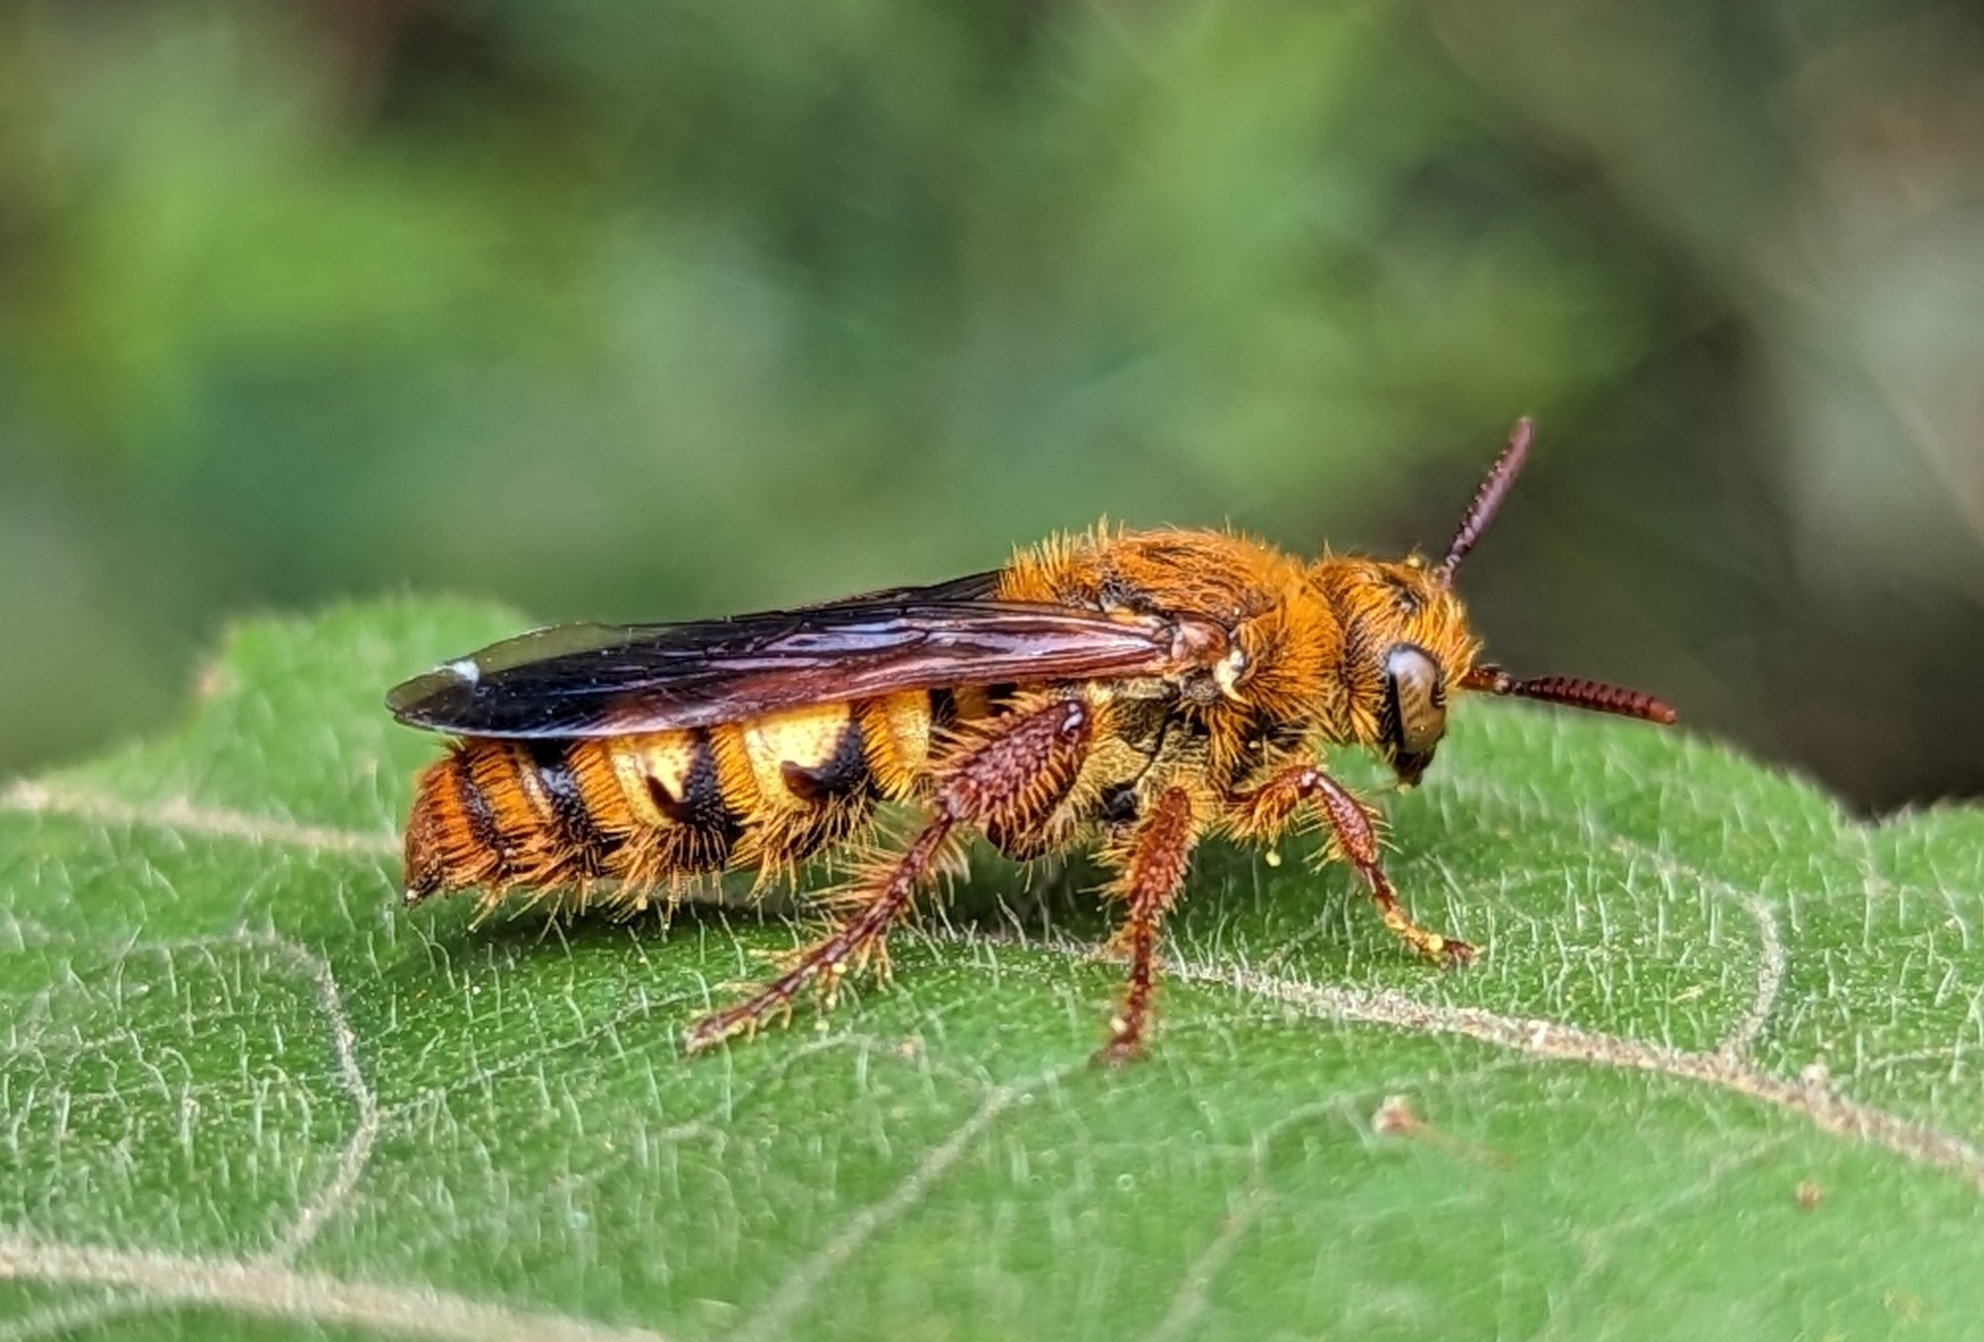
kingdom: Animalia
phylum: Arthropoda
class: Insecta
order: Hymenoptera
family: Scoliidae
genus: Phalerimeris
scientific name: Phalerimeris
